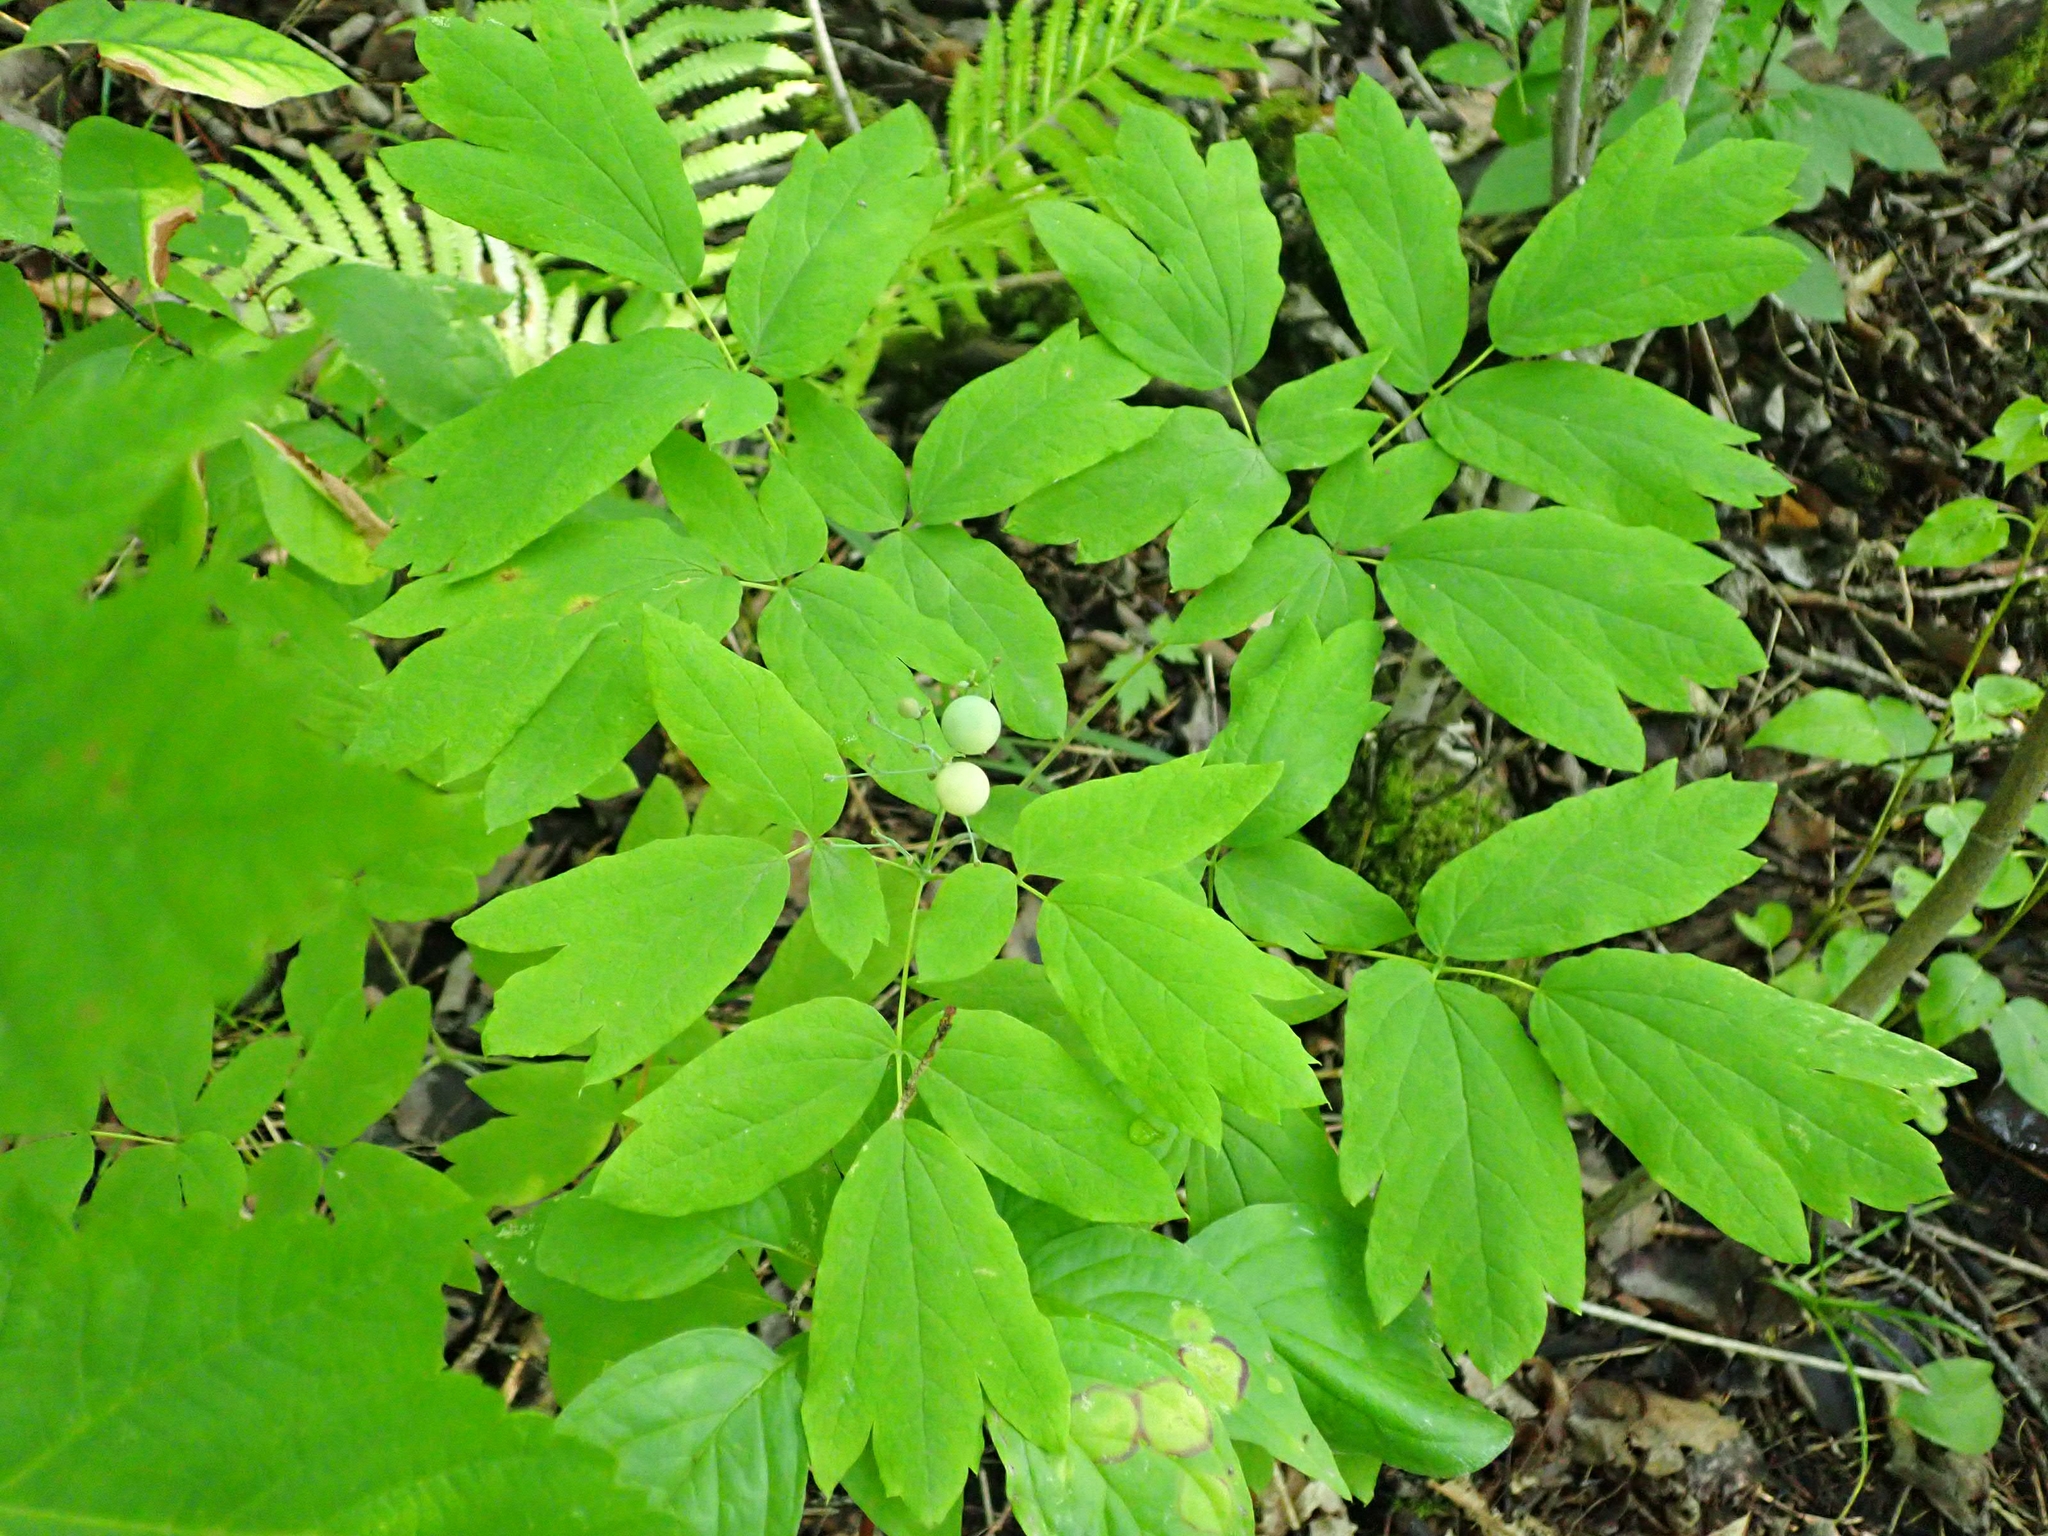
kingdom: Plantae
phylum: Tracheophyta
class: Magnoliopsida
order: Ranunculales
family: Berberidaceae
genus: Caulophyllum
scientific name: Caulophyllum thalictroides
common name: Blue cohosh
